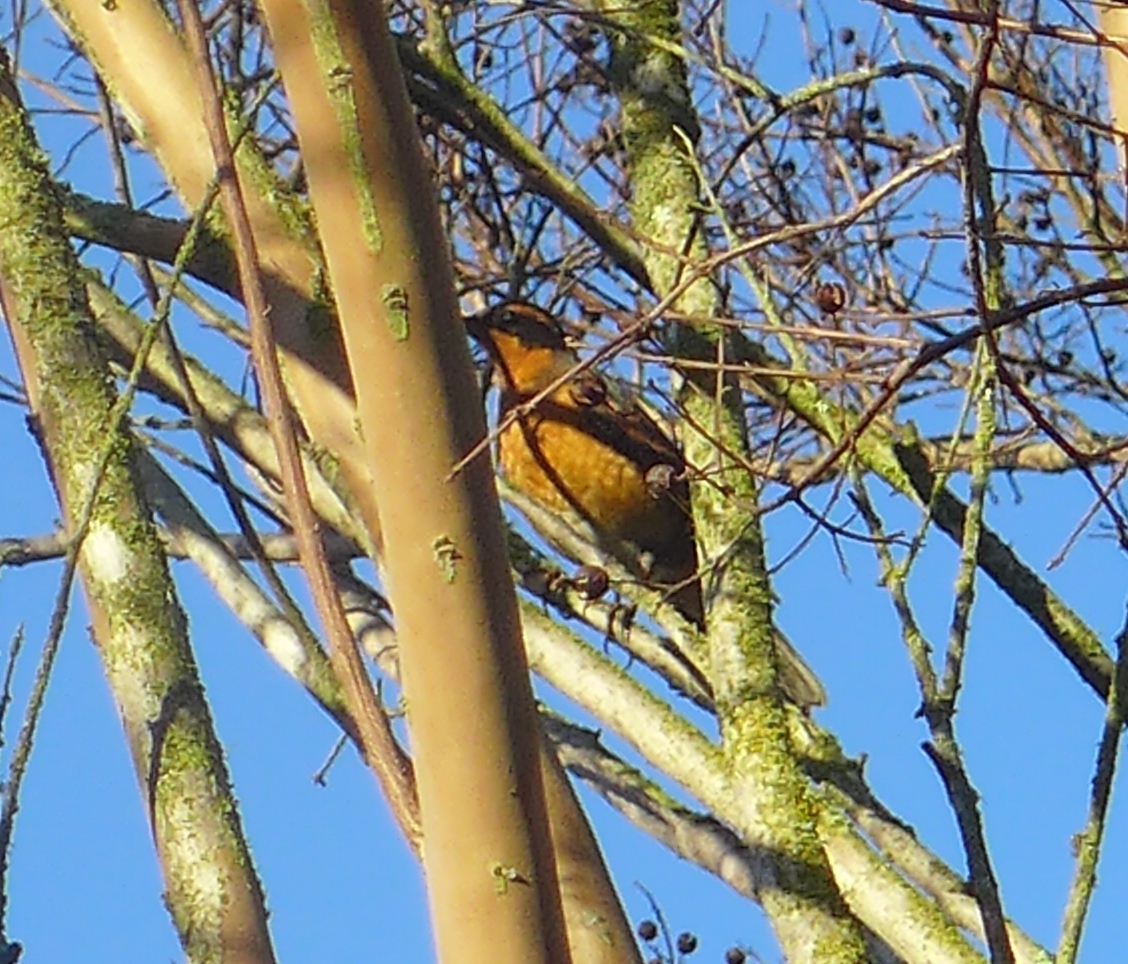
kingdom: Animalia
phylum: Chordata
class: Aves
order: Passeriformes
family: Turdidae
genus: Ixoreus
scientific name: Ixoreus naevius
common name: Varied thrush
